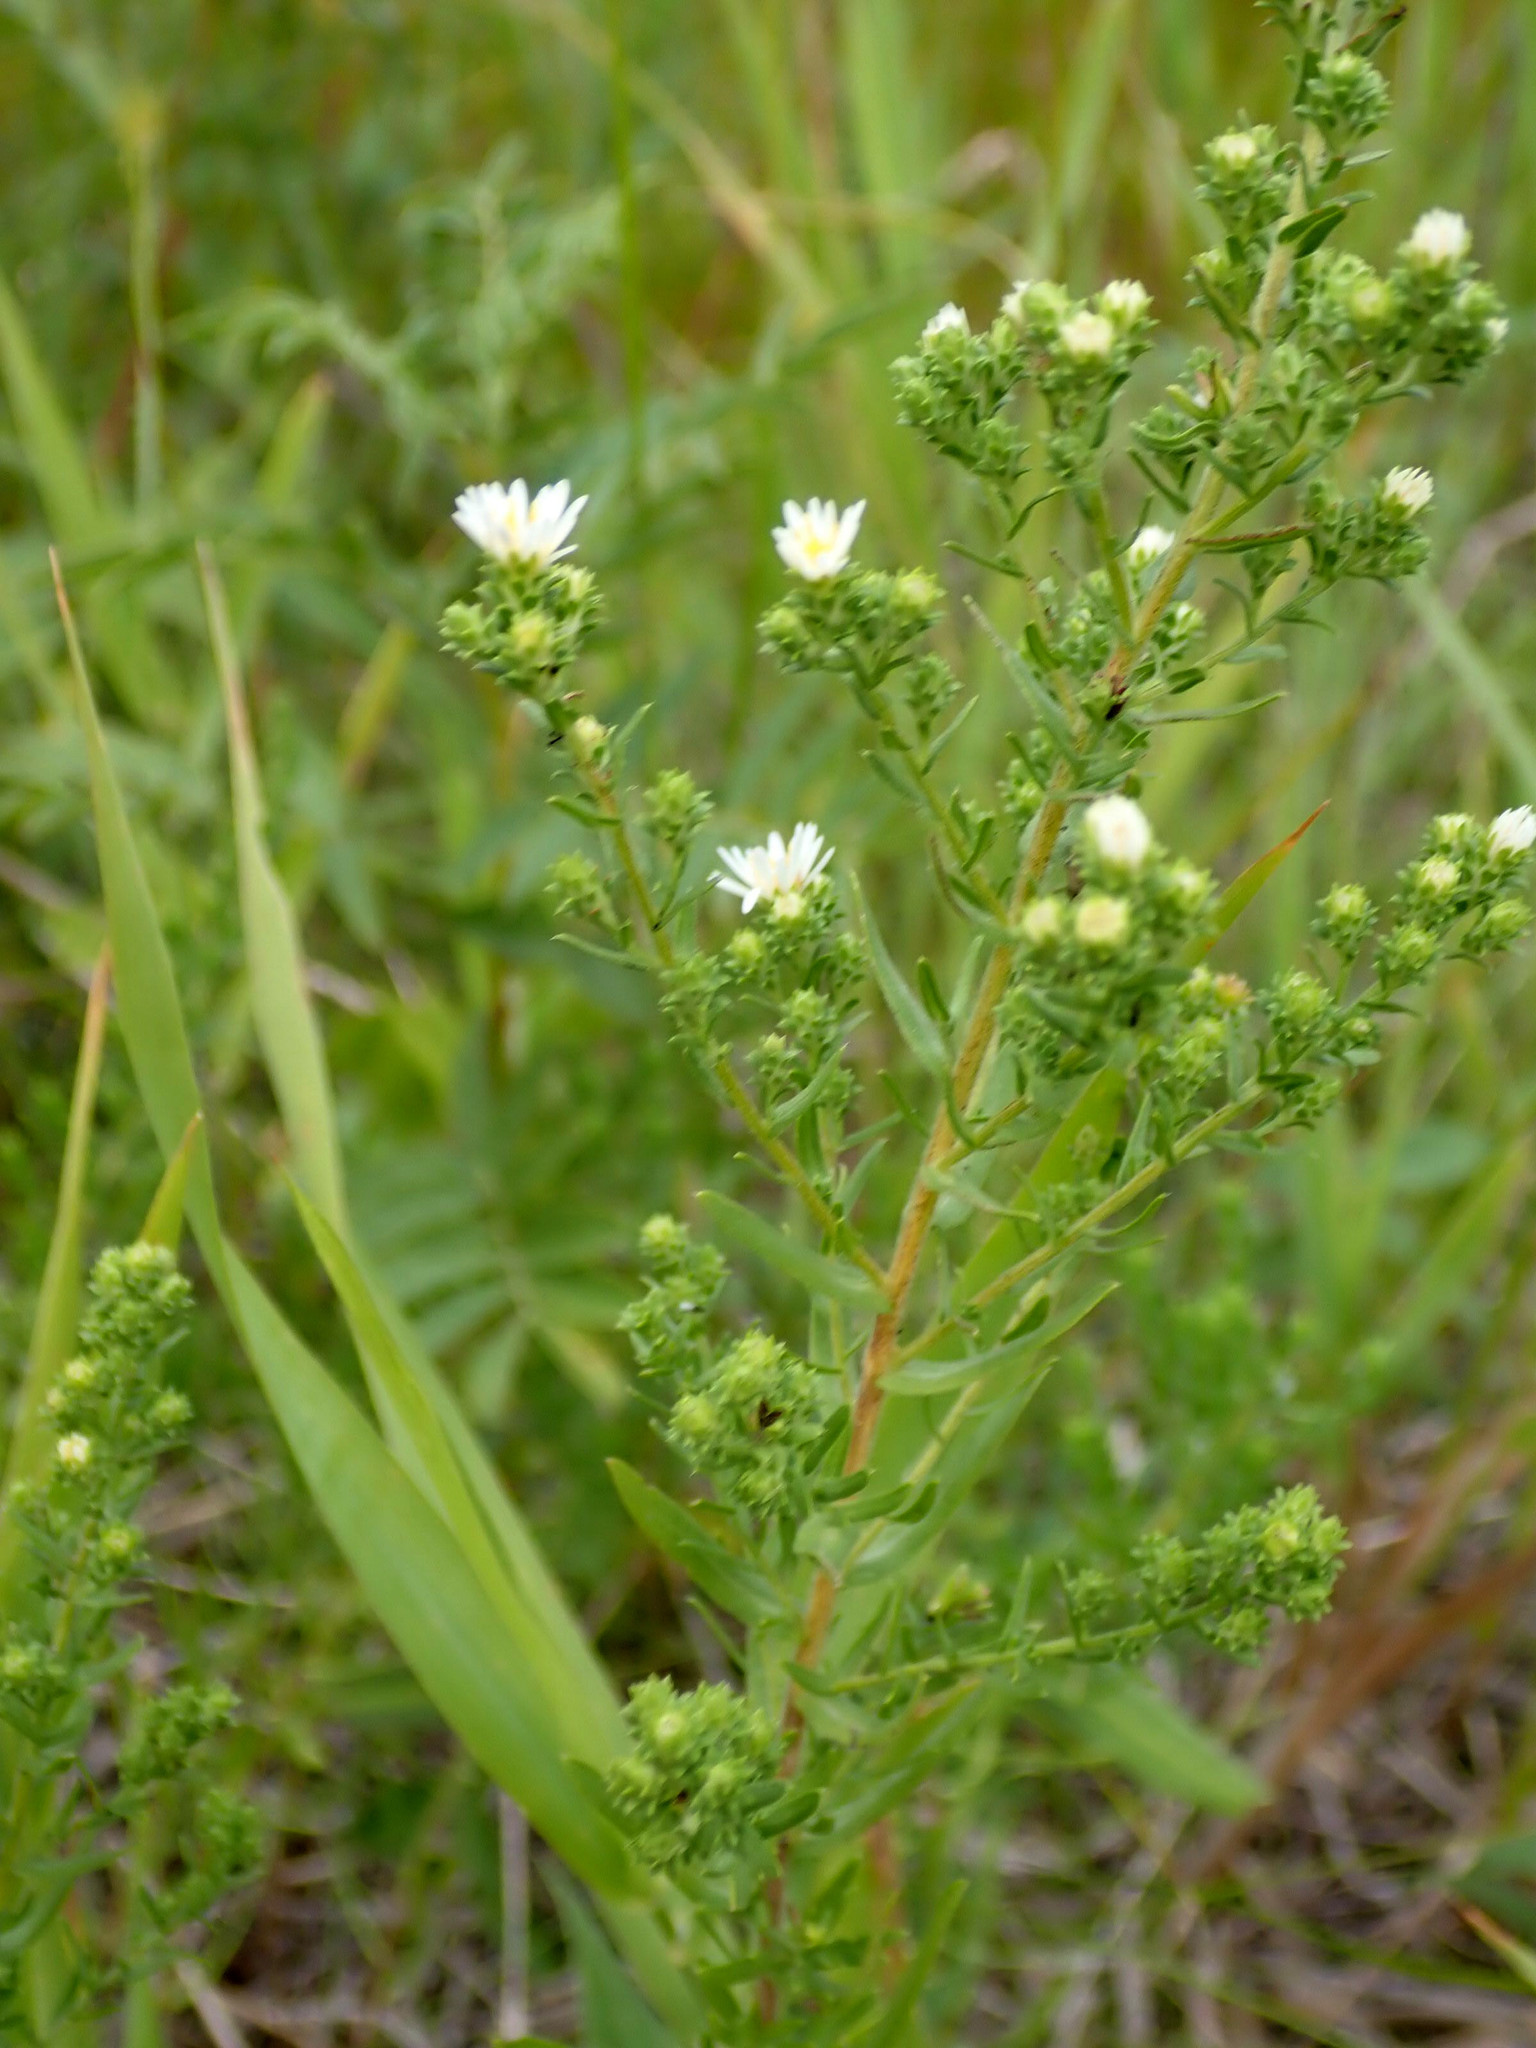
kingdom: Plantae
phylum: Tracheophyta
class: Magnoliopsida
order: Asterales
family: Asteraceae
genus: Symphyotrichum
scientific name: Symphyotrichum ericoides
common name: Heath aster
